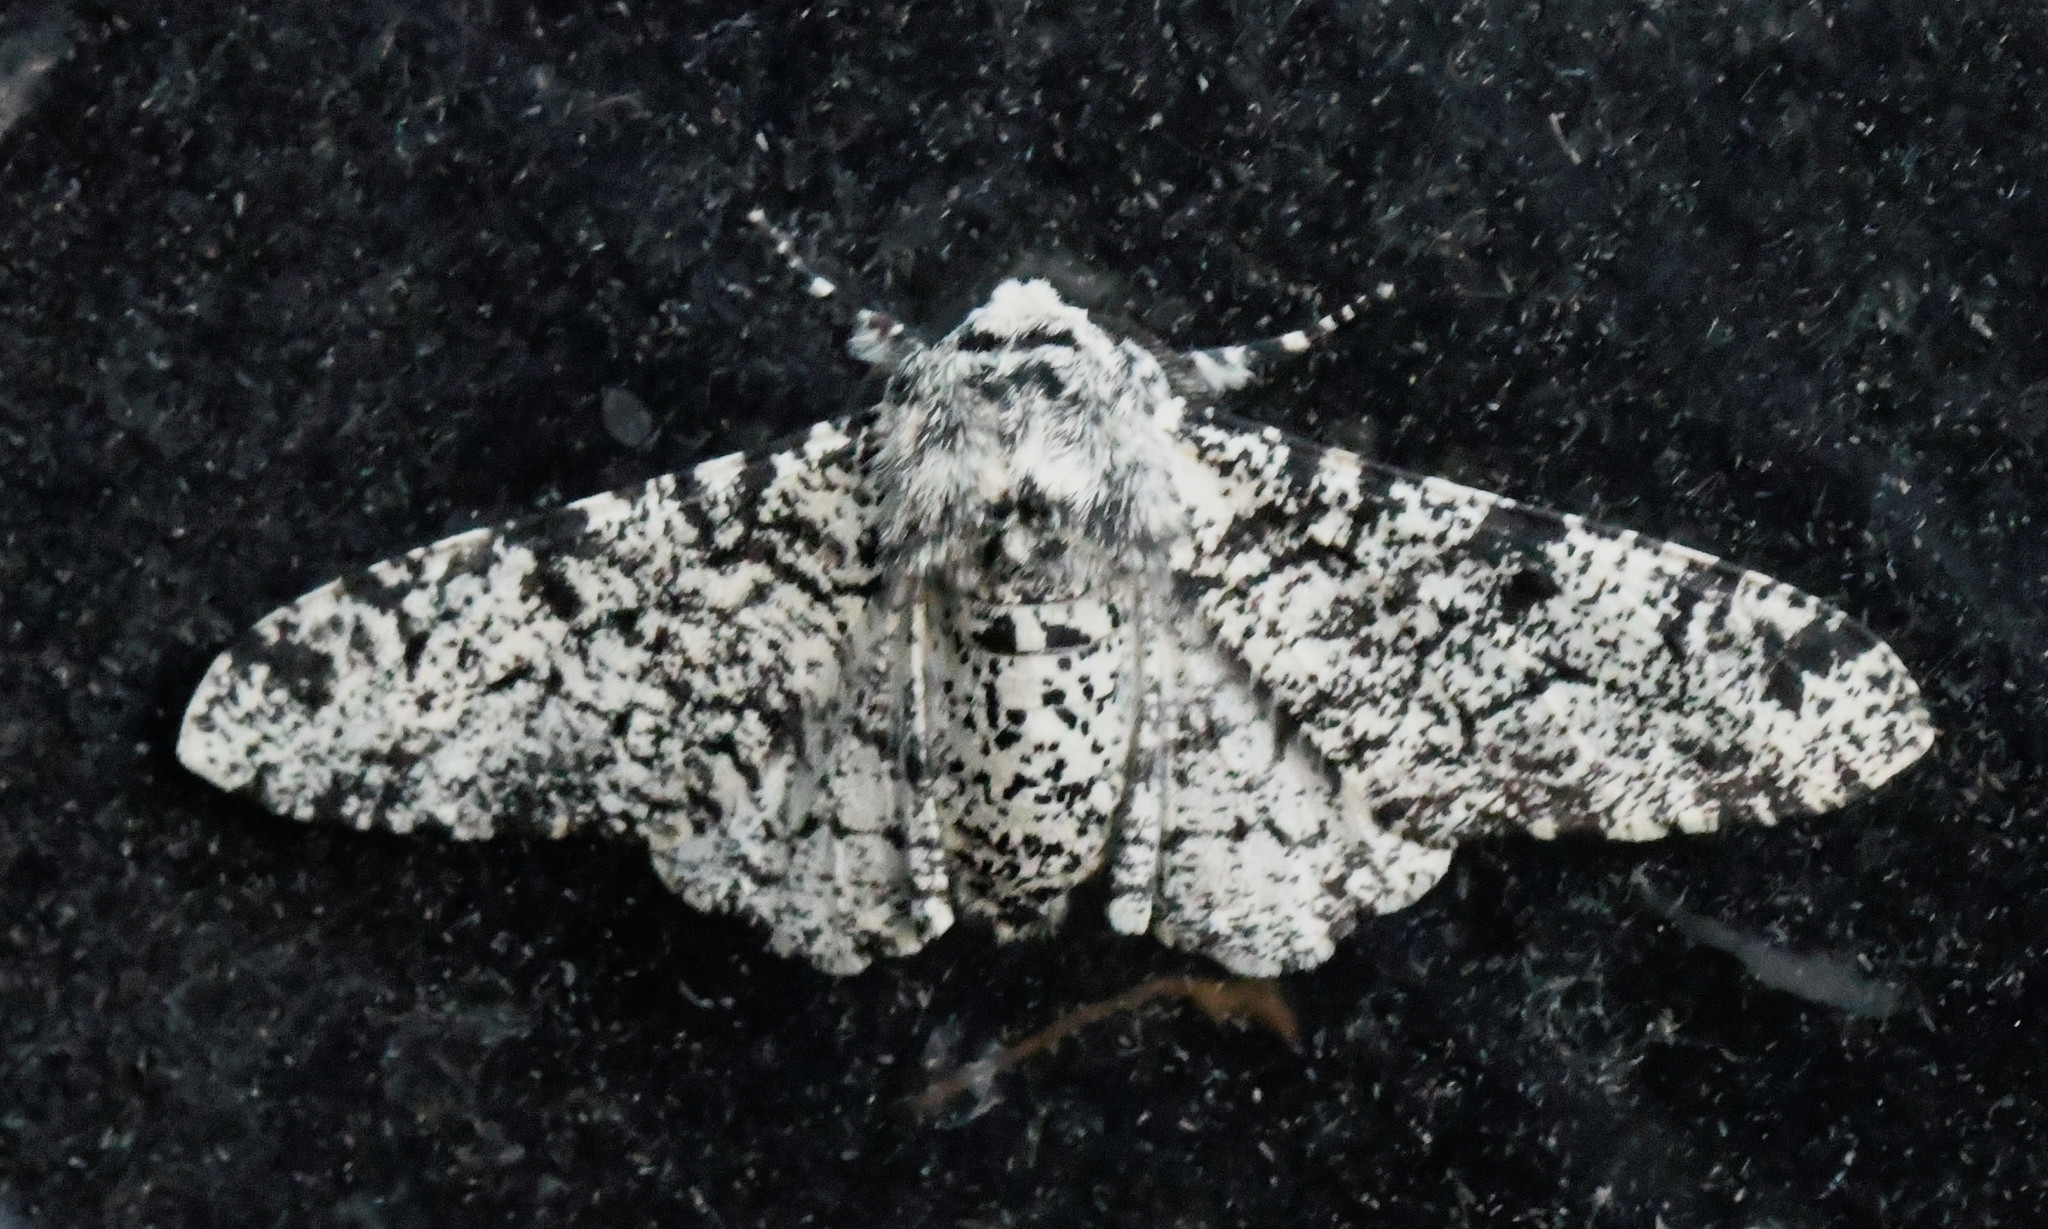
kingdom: Animalia
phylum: Arthropoda
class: Insecta
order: Lepidoptera
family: Geometridae
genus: Biston
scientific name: Biston betularia
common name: Peppered moth
